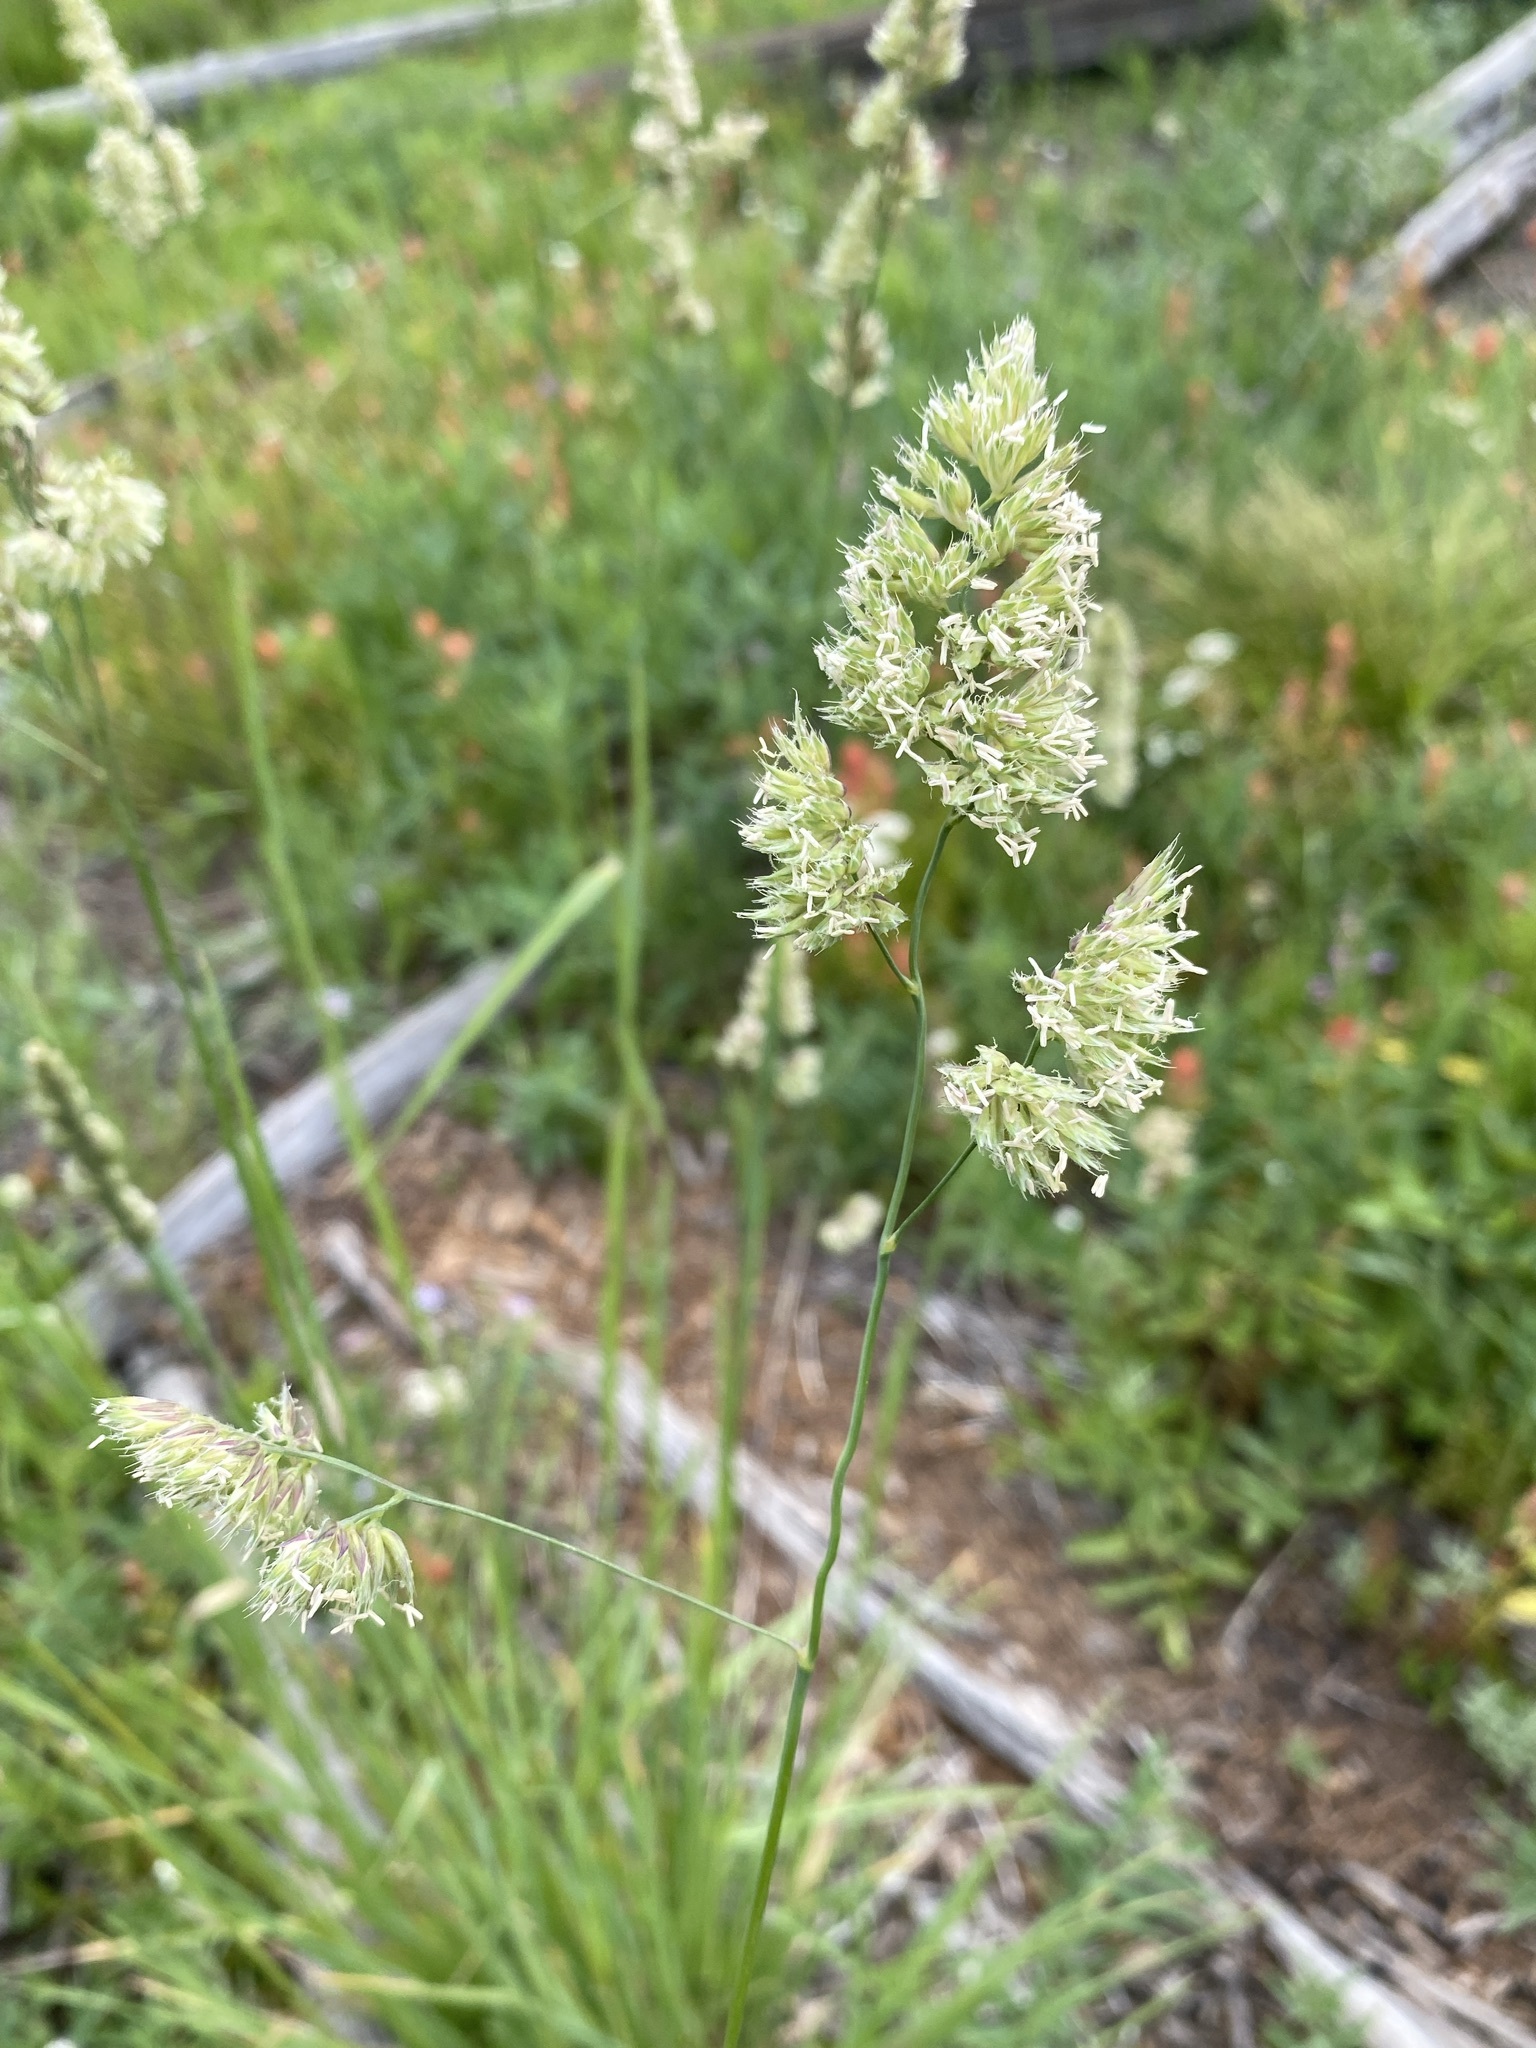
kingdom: Plantae
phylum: Tracheophyta
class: Liliopsida
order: Poales
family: Poaceae
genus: Dactylis
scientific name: Dactylis glomerata
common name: Orchardgrass
